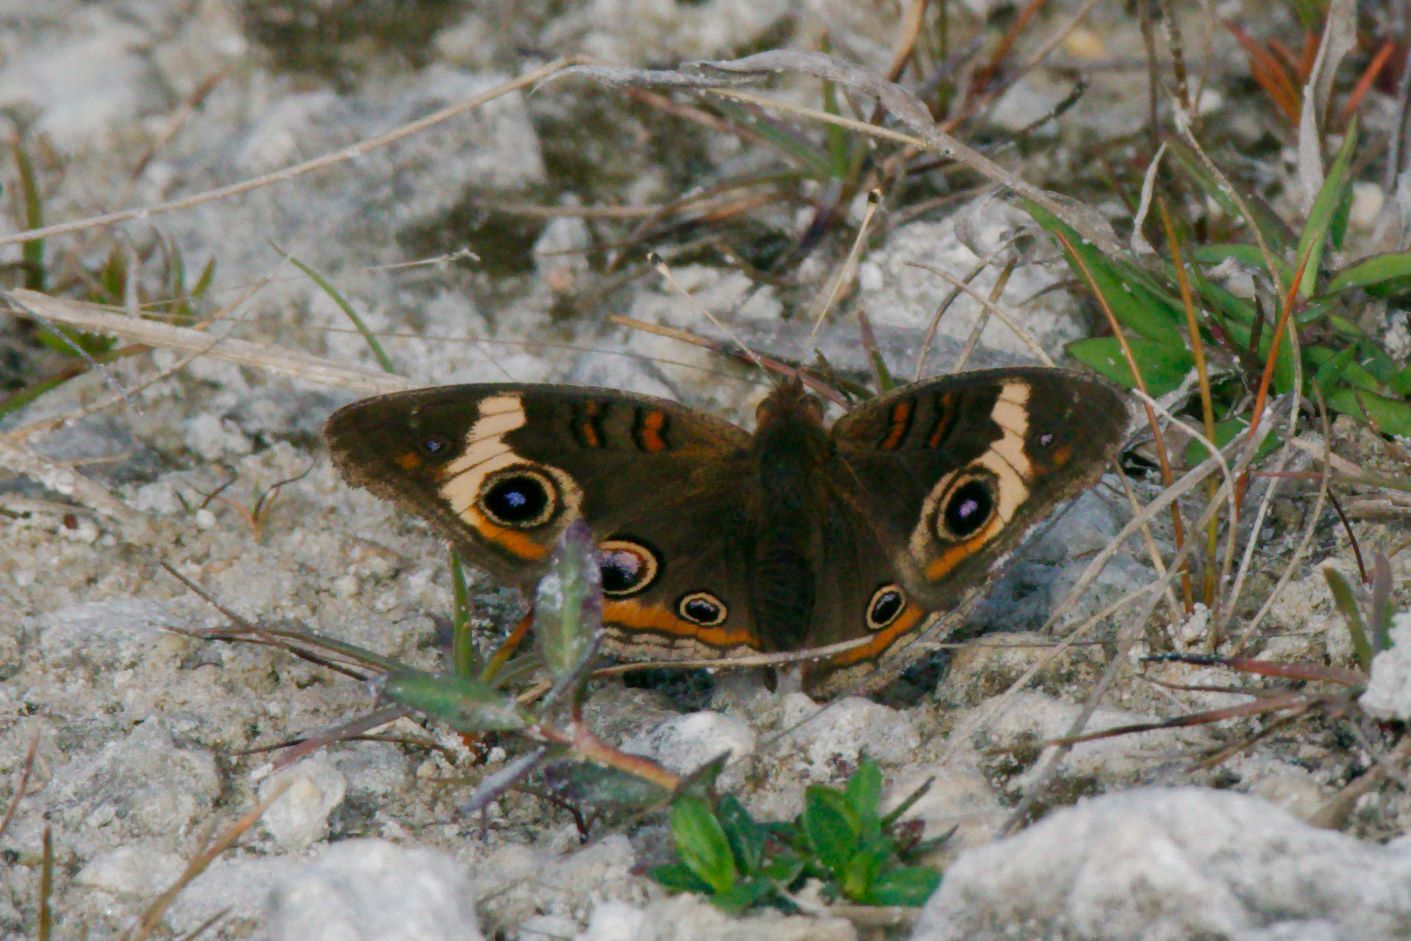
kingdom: Animalia
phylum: Arthropoda
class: Insecta
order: Lepidoptera
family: Nymphalidae
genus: Junonia
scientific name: Junonia coenia
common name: Common buckeye
